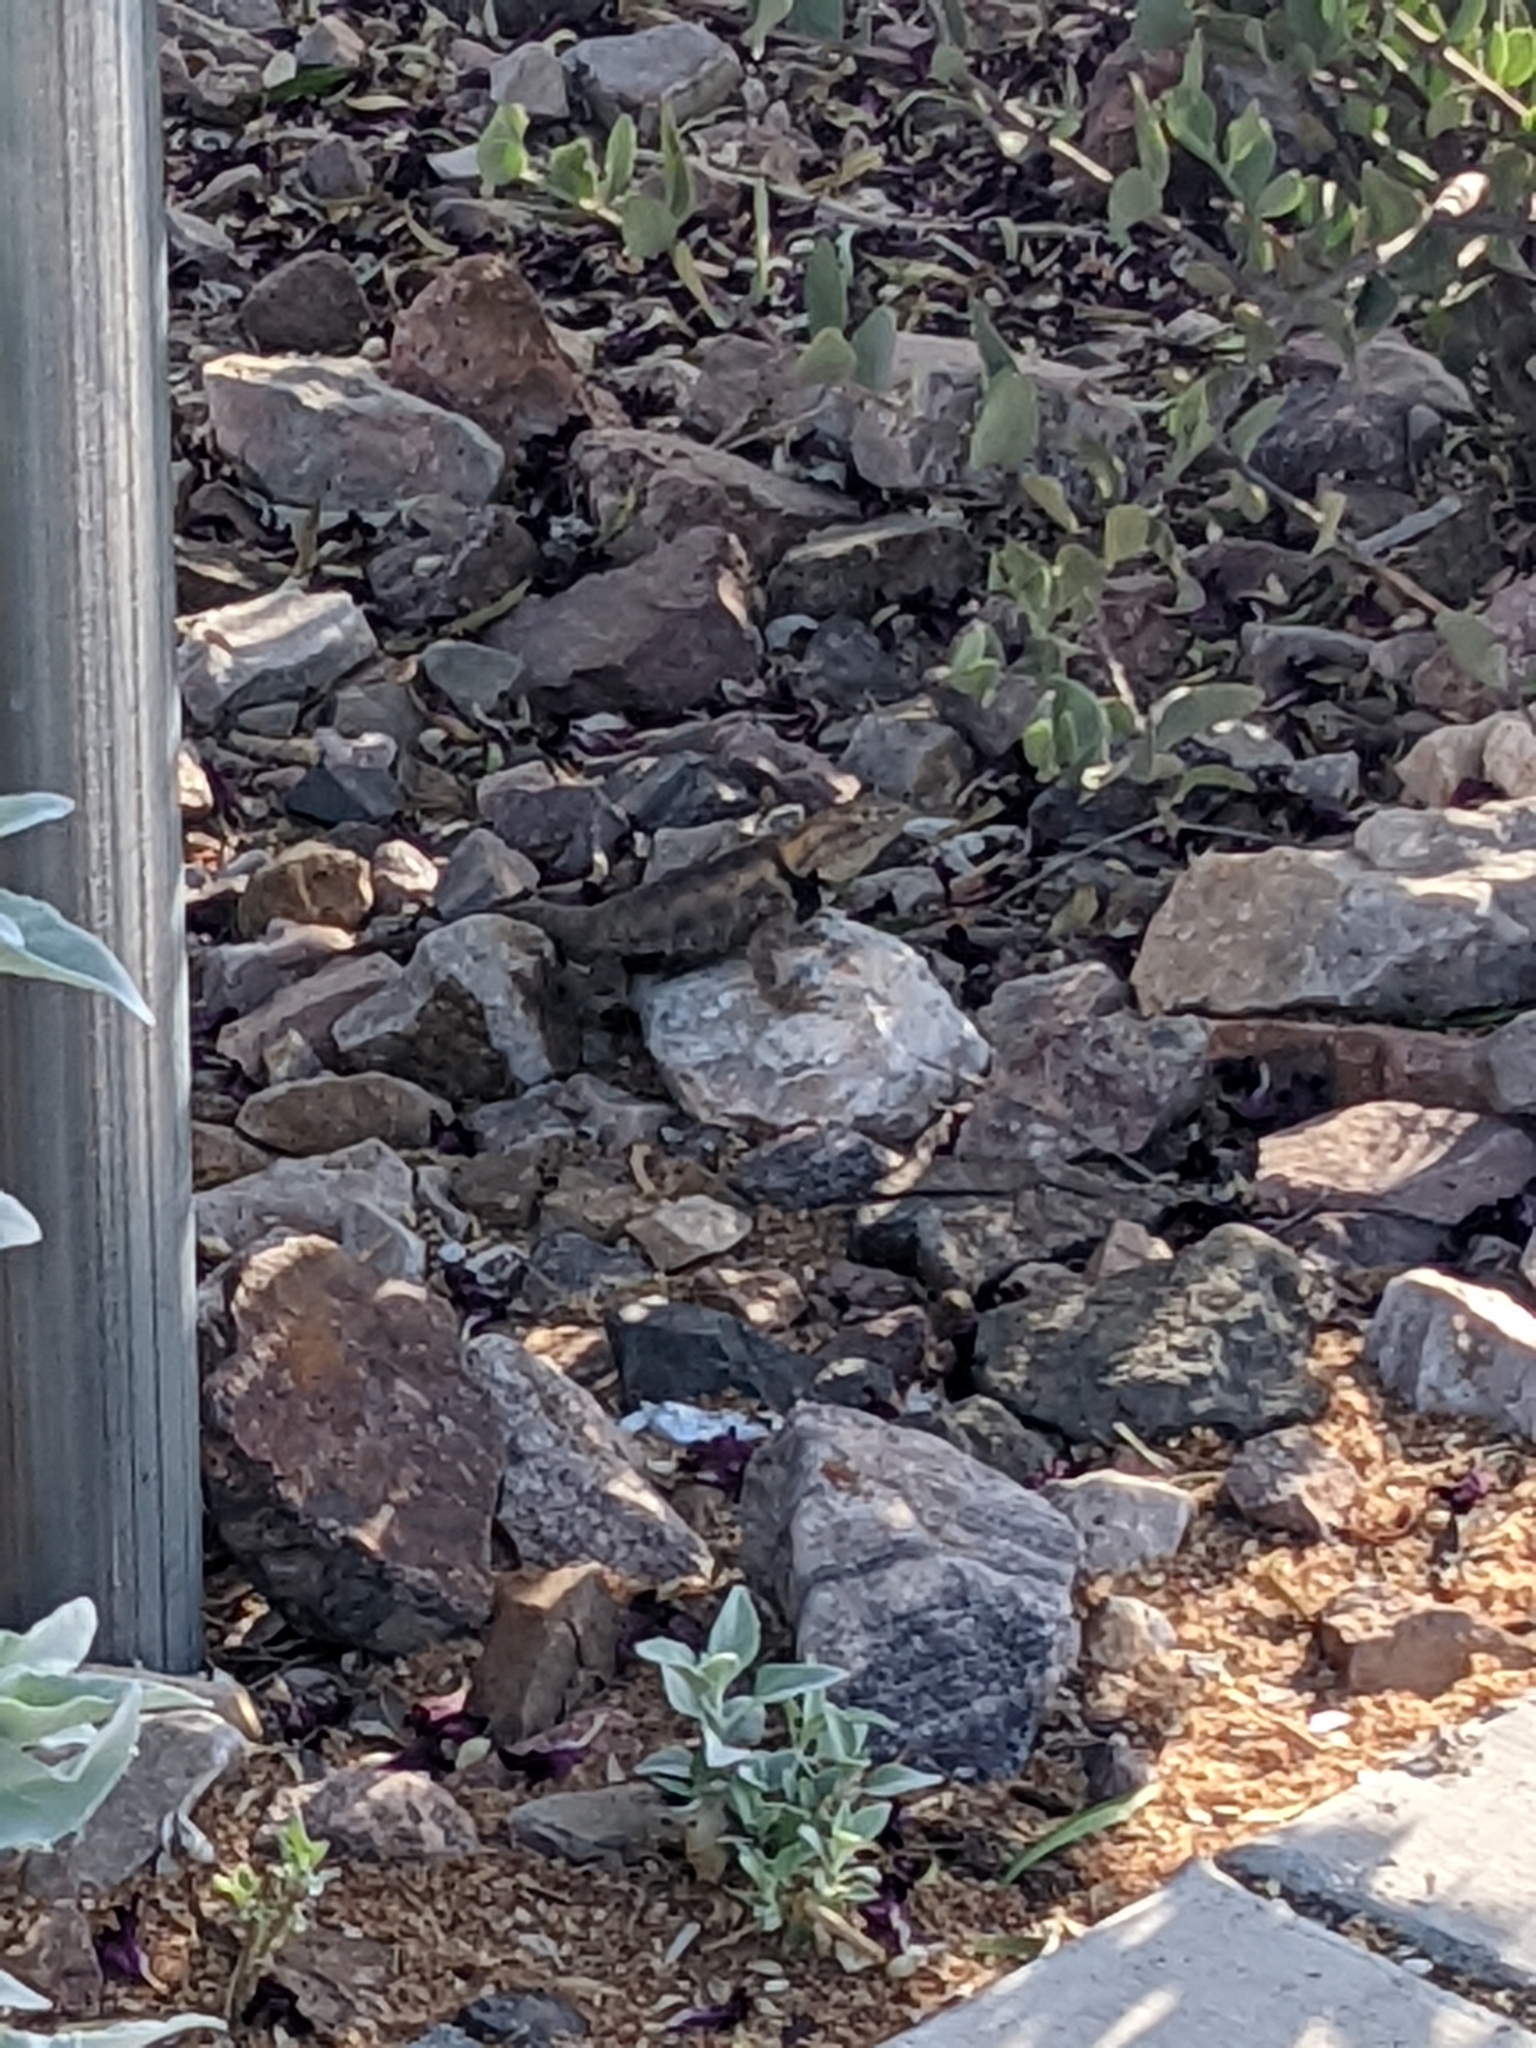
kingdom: Animalia
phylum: Chordata
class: Squamata
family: Phrynosomatidae
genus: Sceloporus
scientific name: Sceloporus magister
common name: Desert spiny lizard
